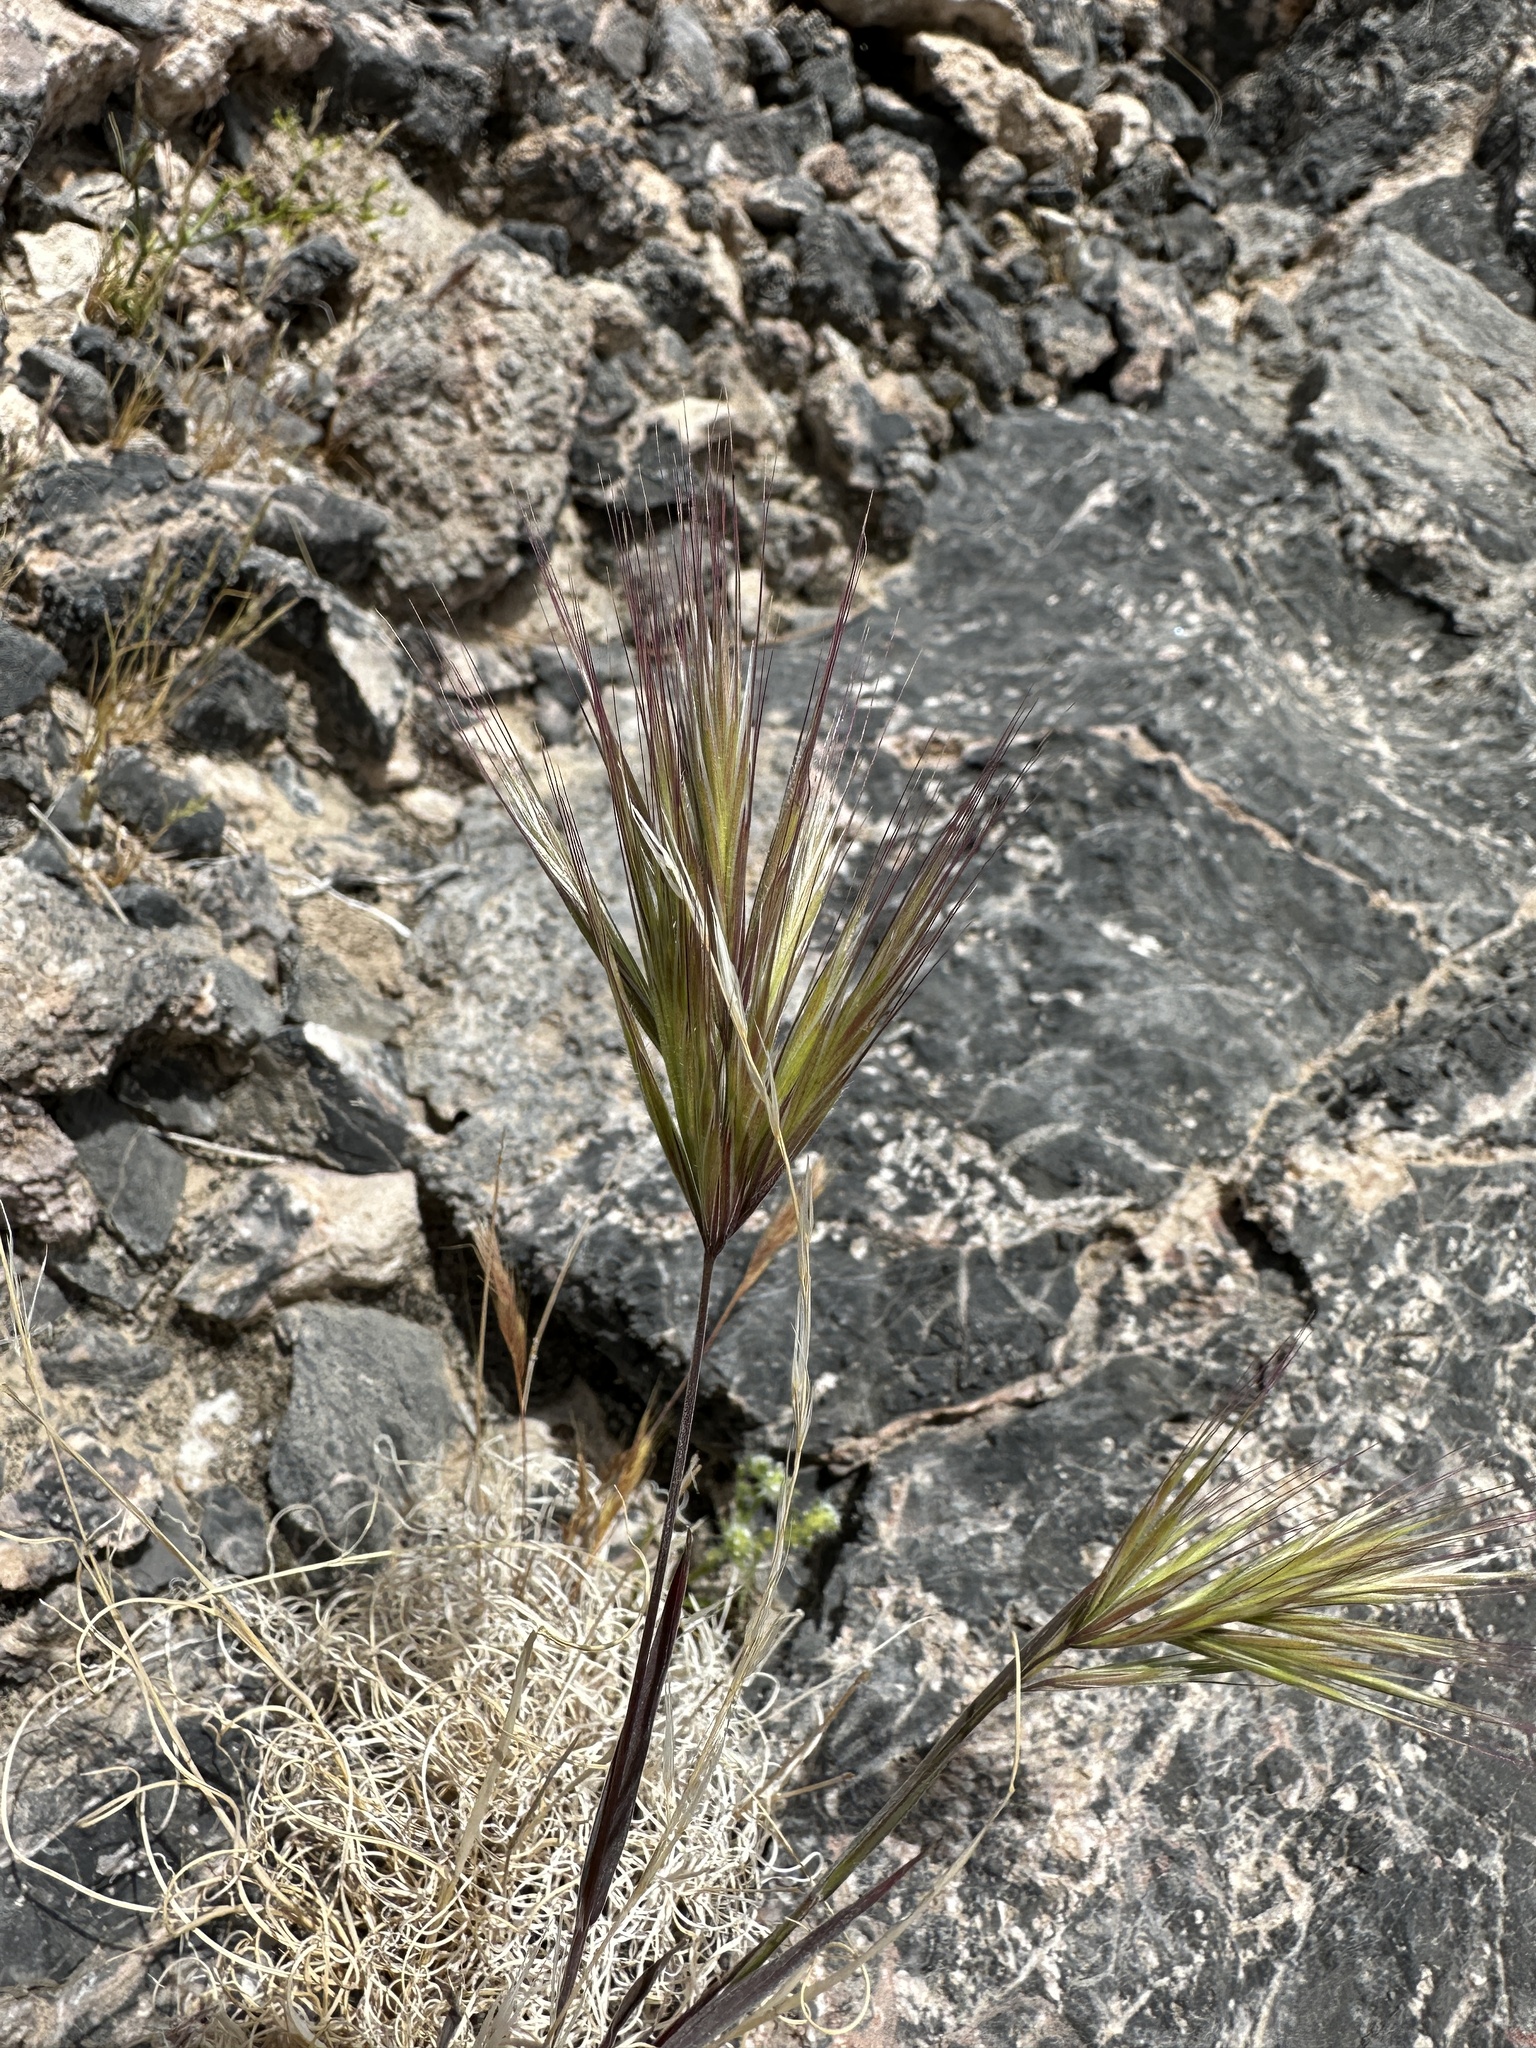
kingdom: Plantae
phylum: Tracheophyta
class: Liliopsida
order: Poales
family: Poaceae
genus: Bromus
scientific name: Bromus rubens
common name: Red brome
